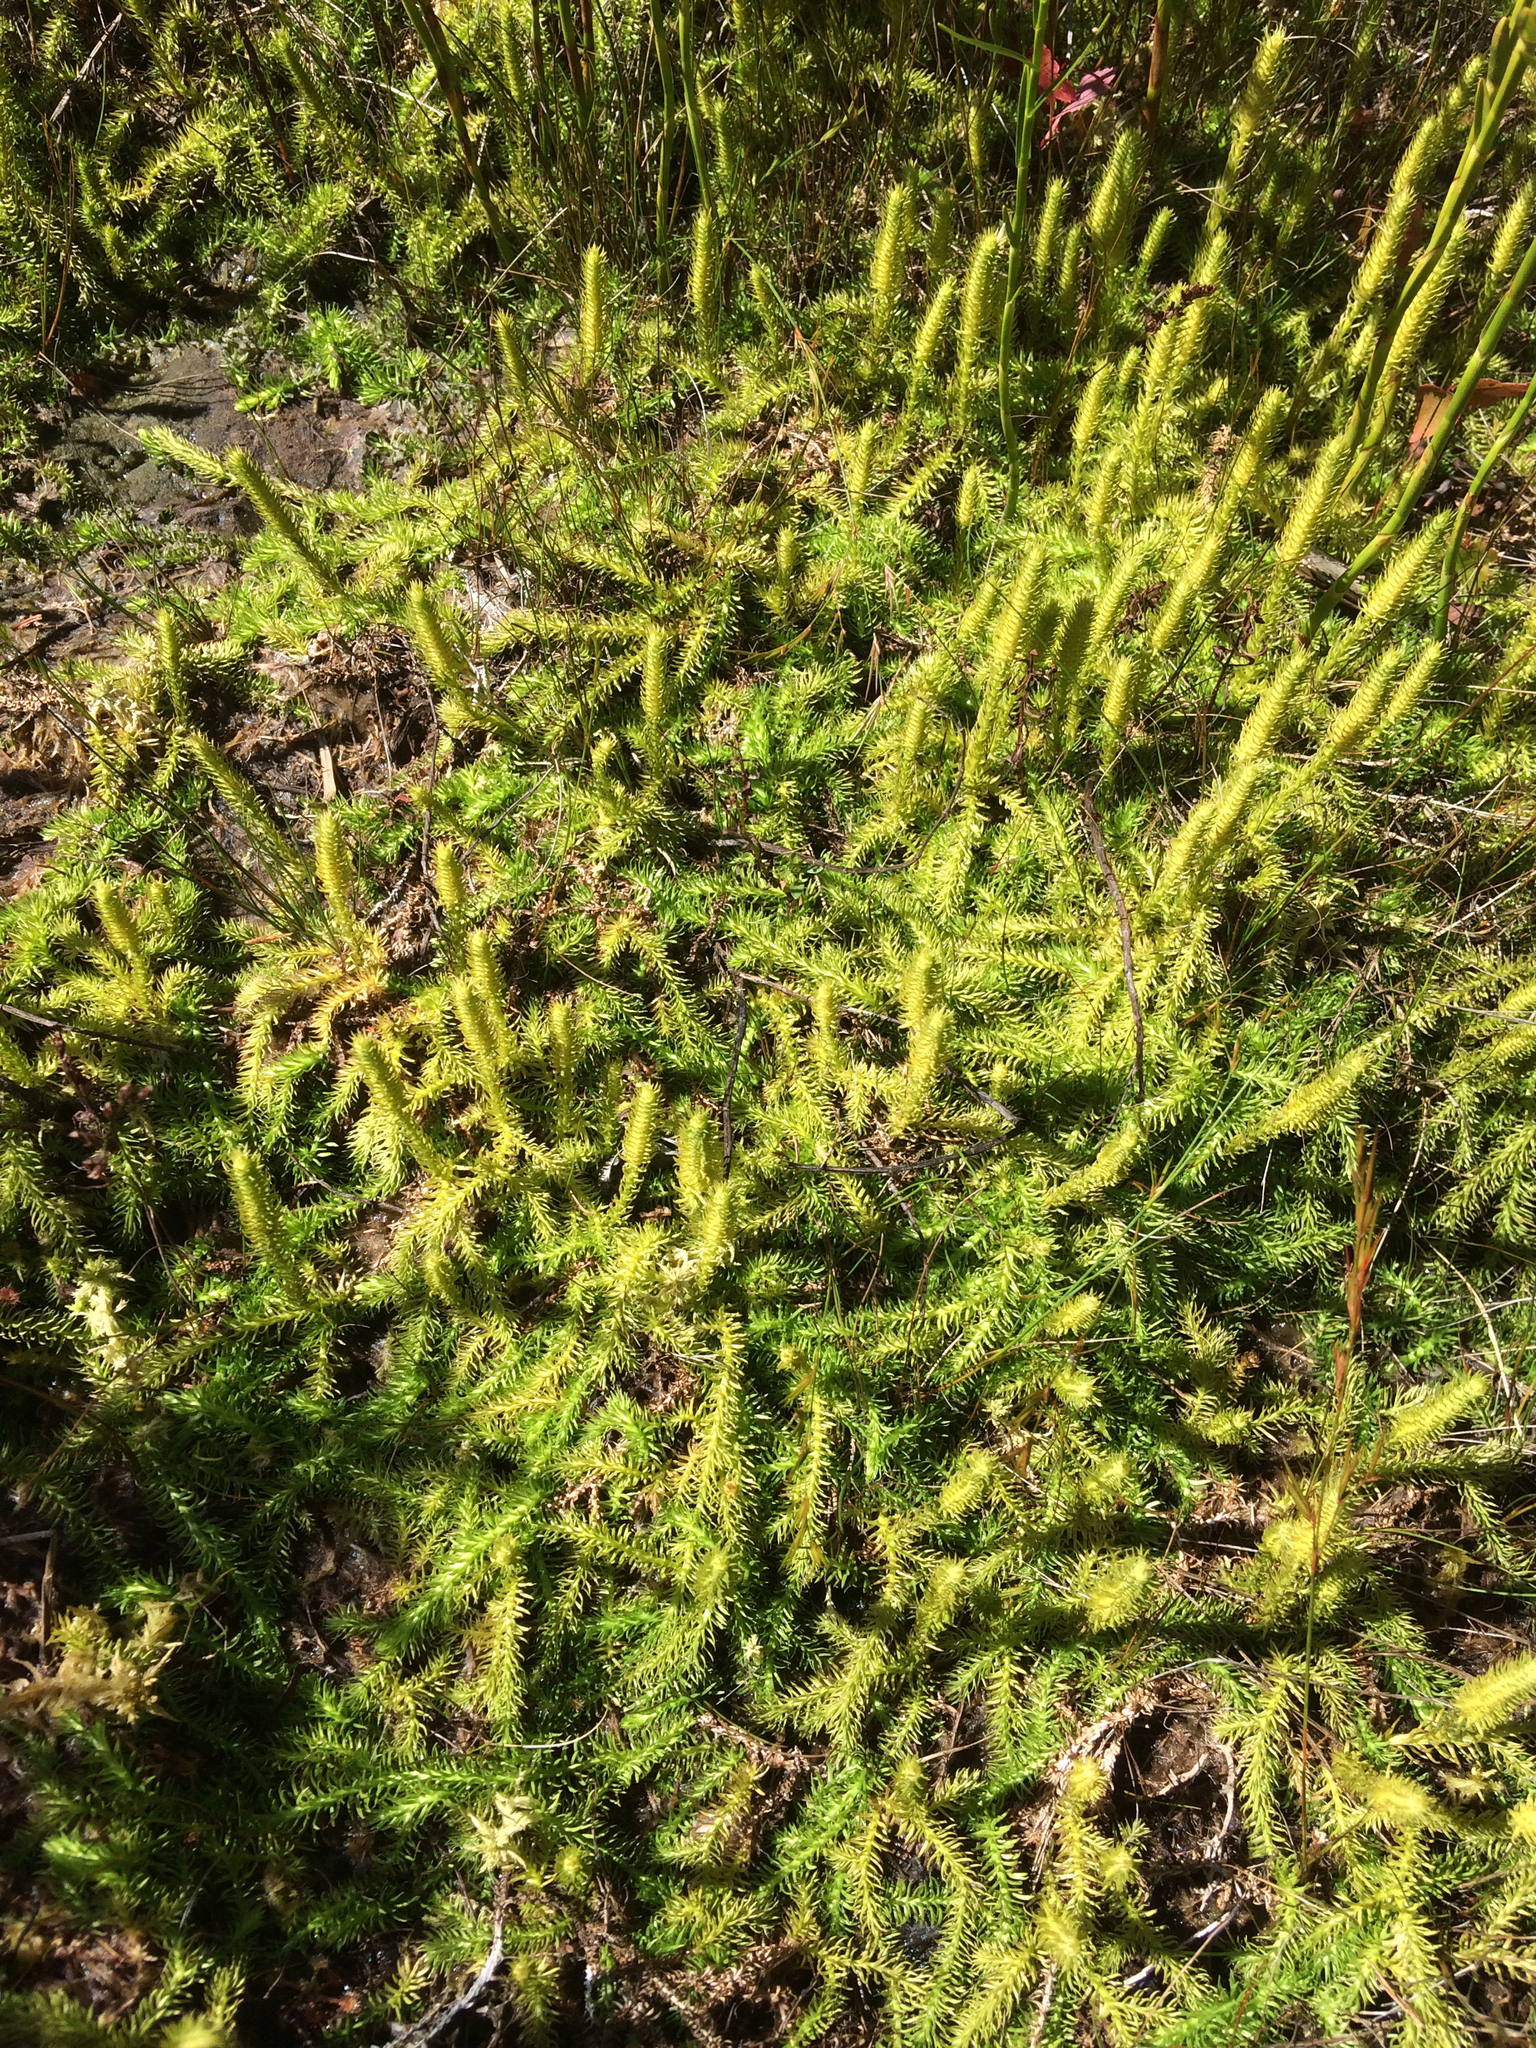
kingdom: Plantae
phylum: Tracheophyta
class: Lycopodiopsida
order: Lycopodiales
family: Lycopodiaceae
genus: Lycopodiella
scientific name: Lycopodiella inundata
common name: Marsh clubmoss
